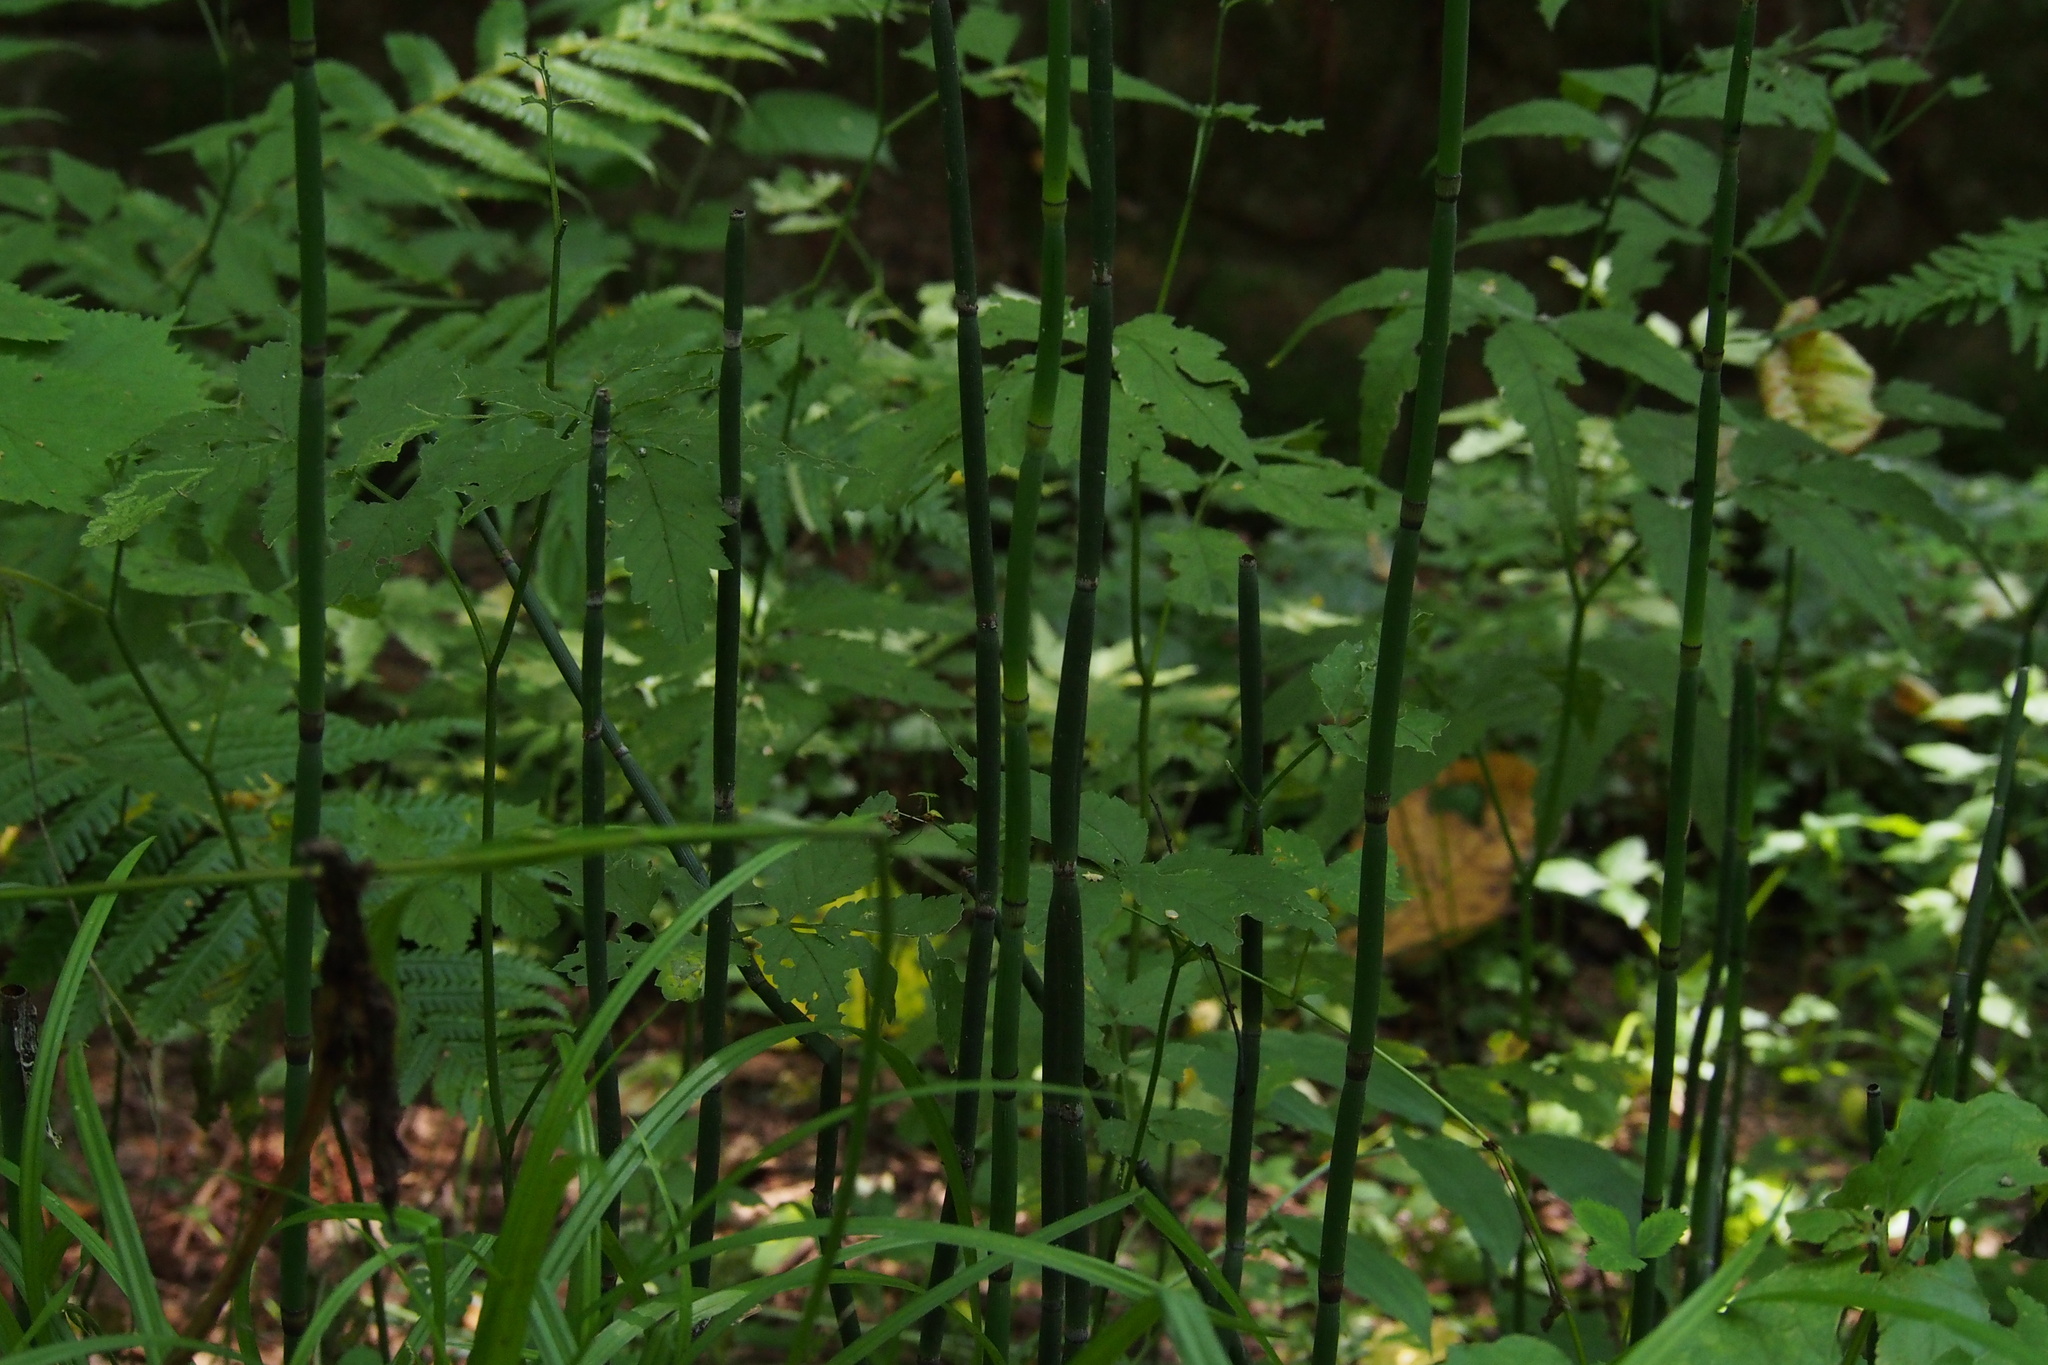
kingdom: Plantae
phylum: Tracheophyta
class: Polypodiopsida
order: Equisetales
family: Equisetaceae
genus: Equisetum
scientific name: Equisetum hyemale
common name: Rough horsetail
